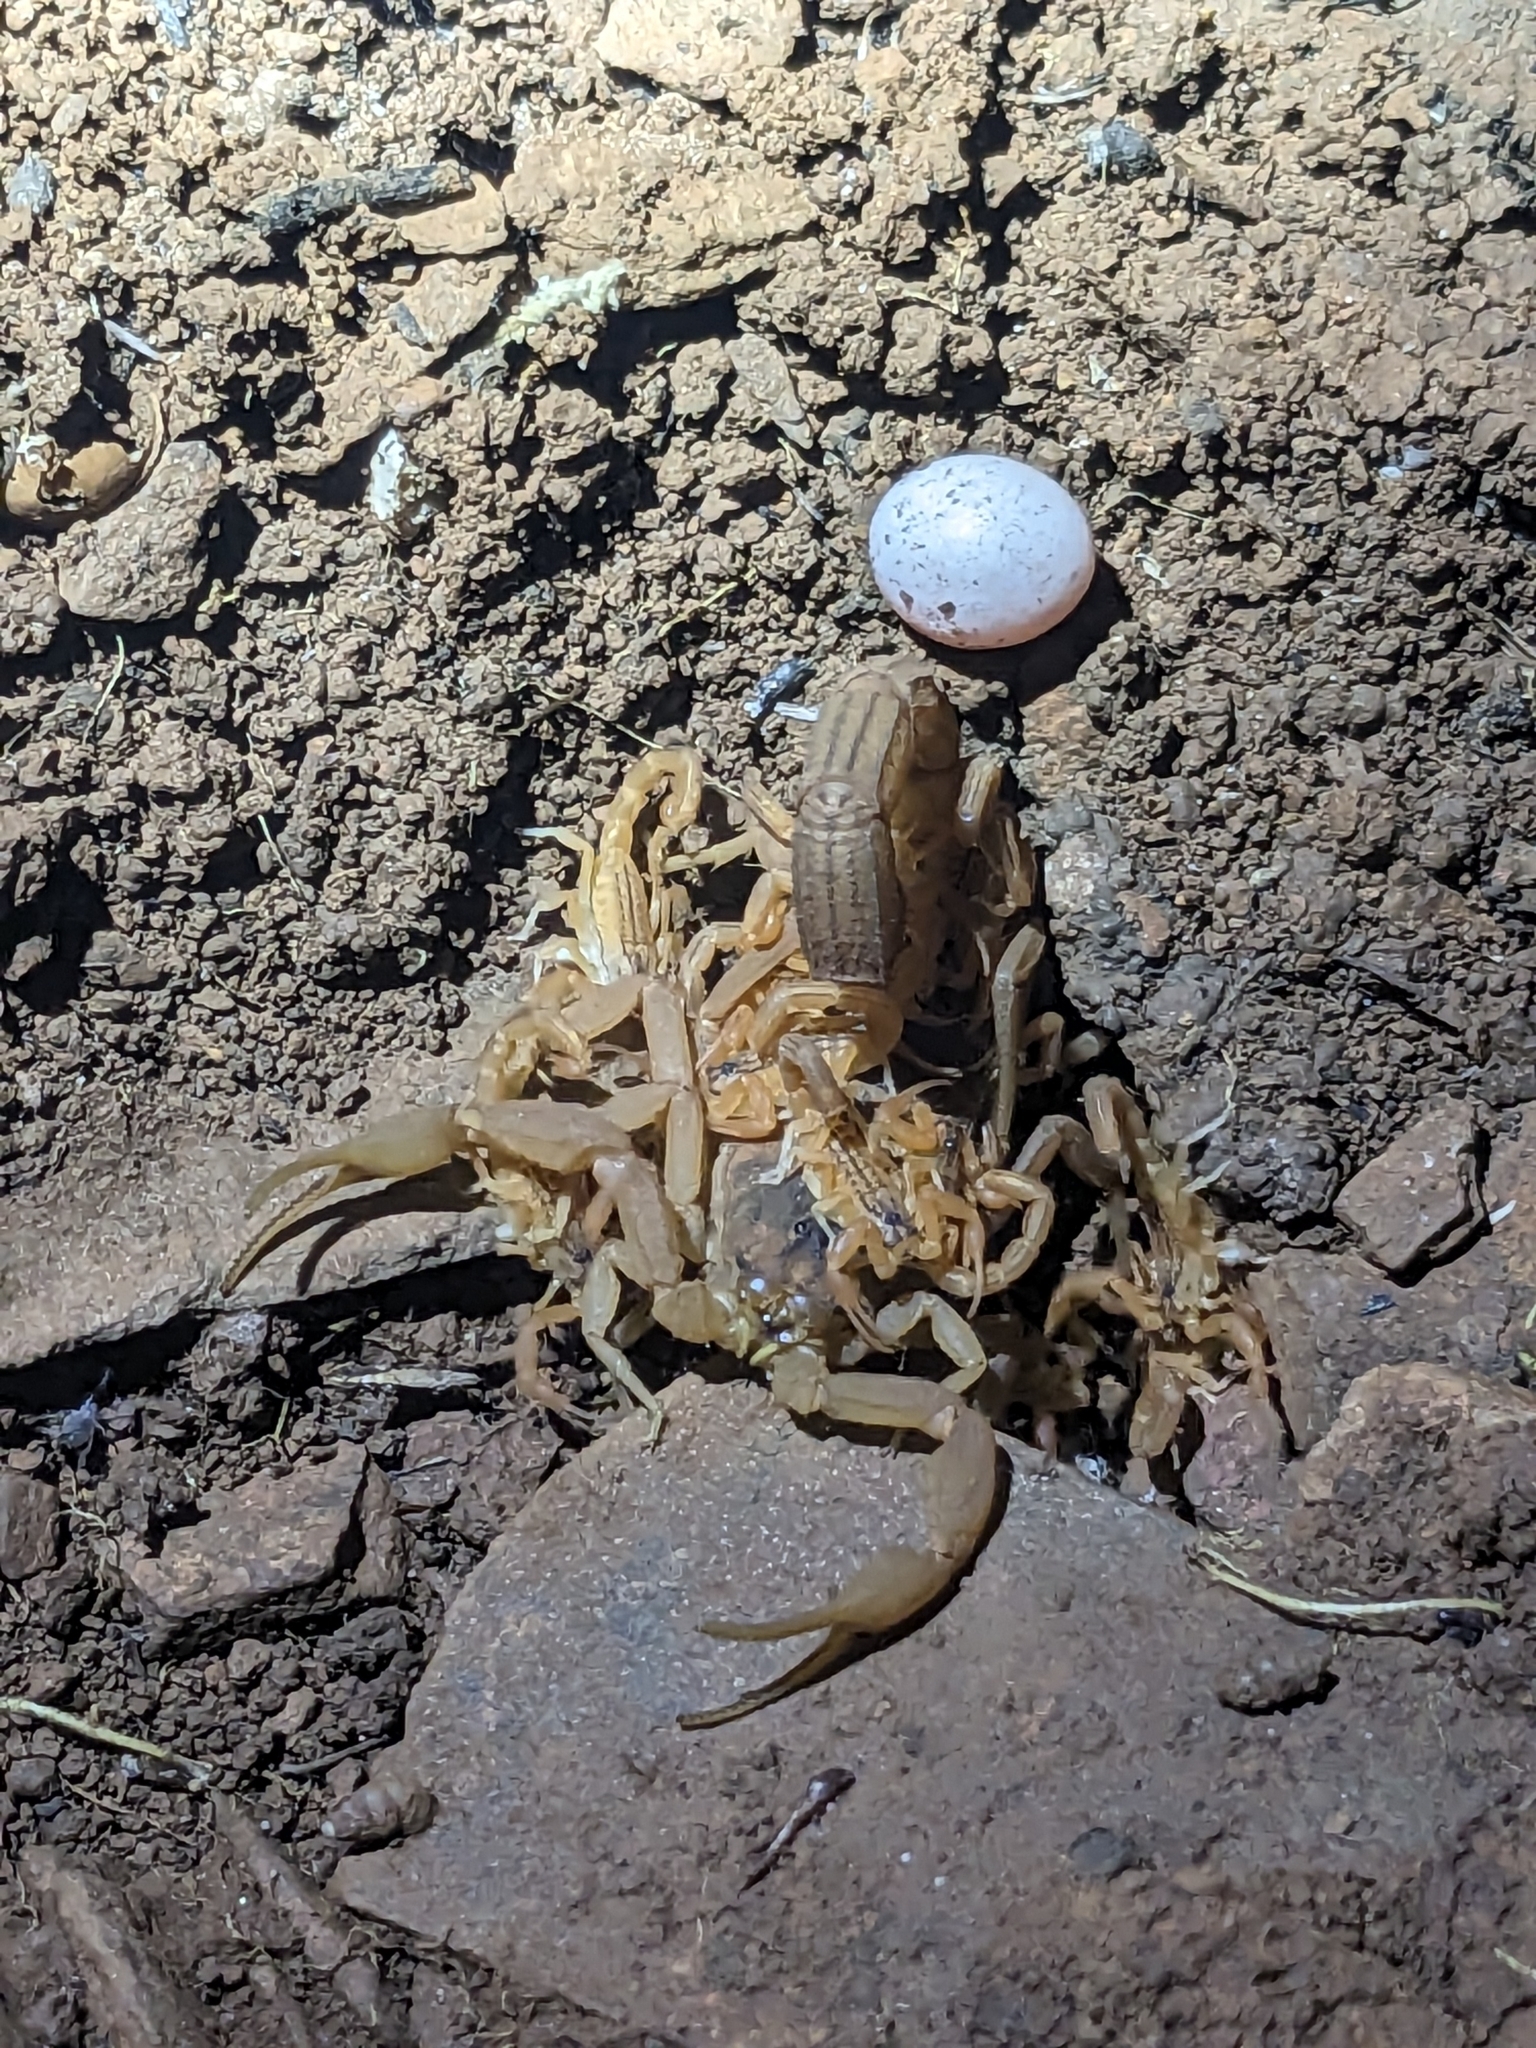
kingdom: Animalia
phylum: Arthropoda
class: Arachnida
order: Scorpiones
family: Buthidae
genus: Hottentotta
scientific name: Hottentotta tamulus
